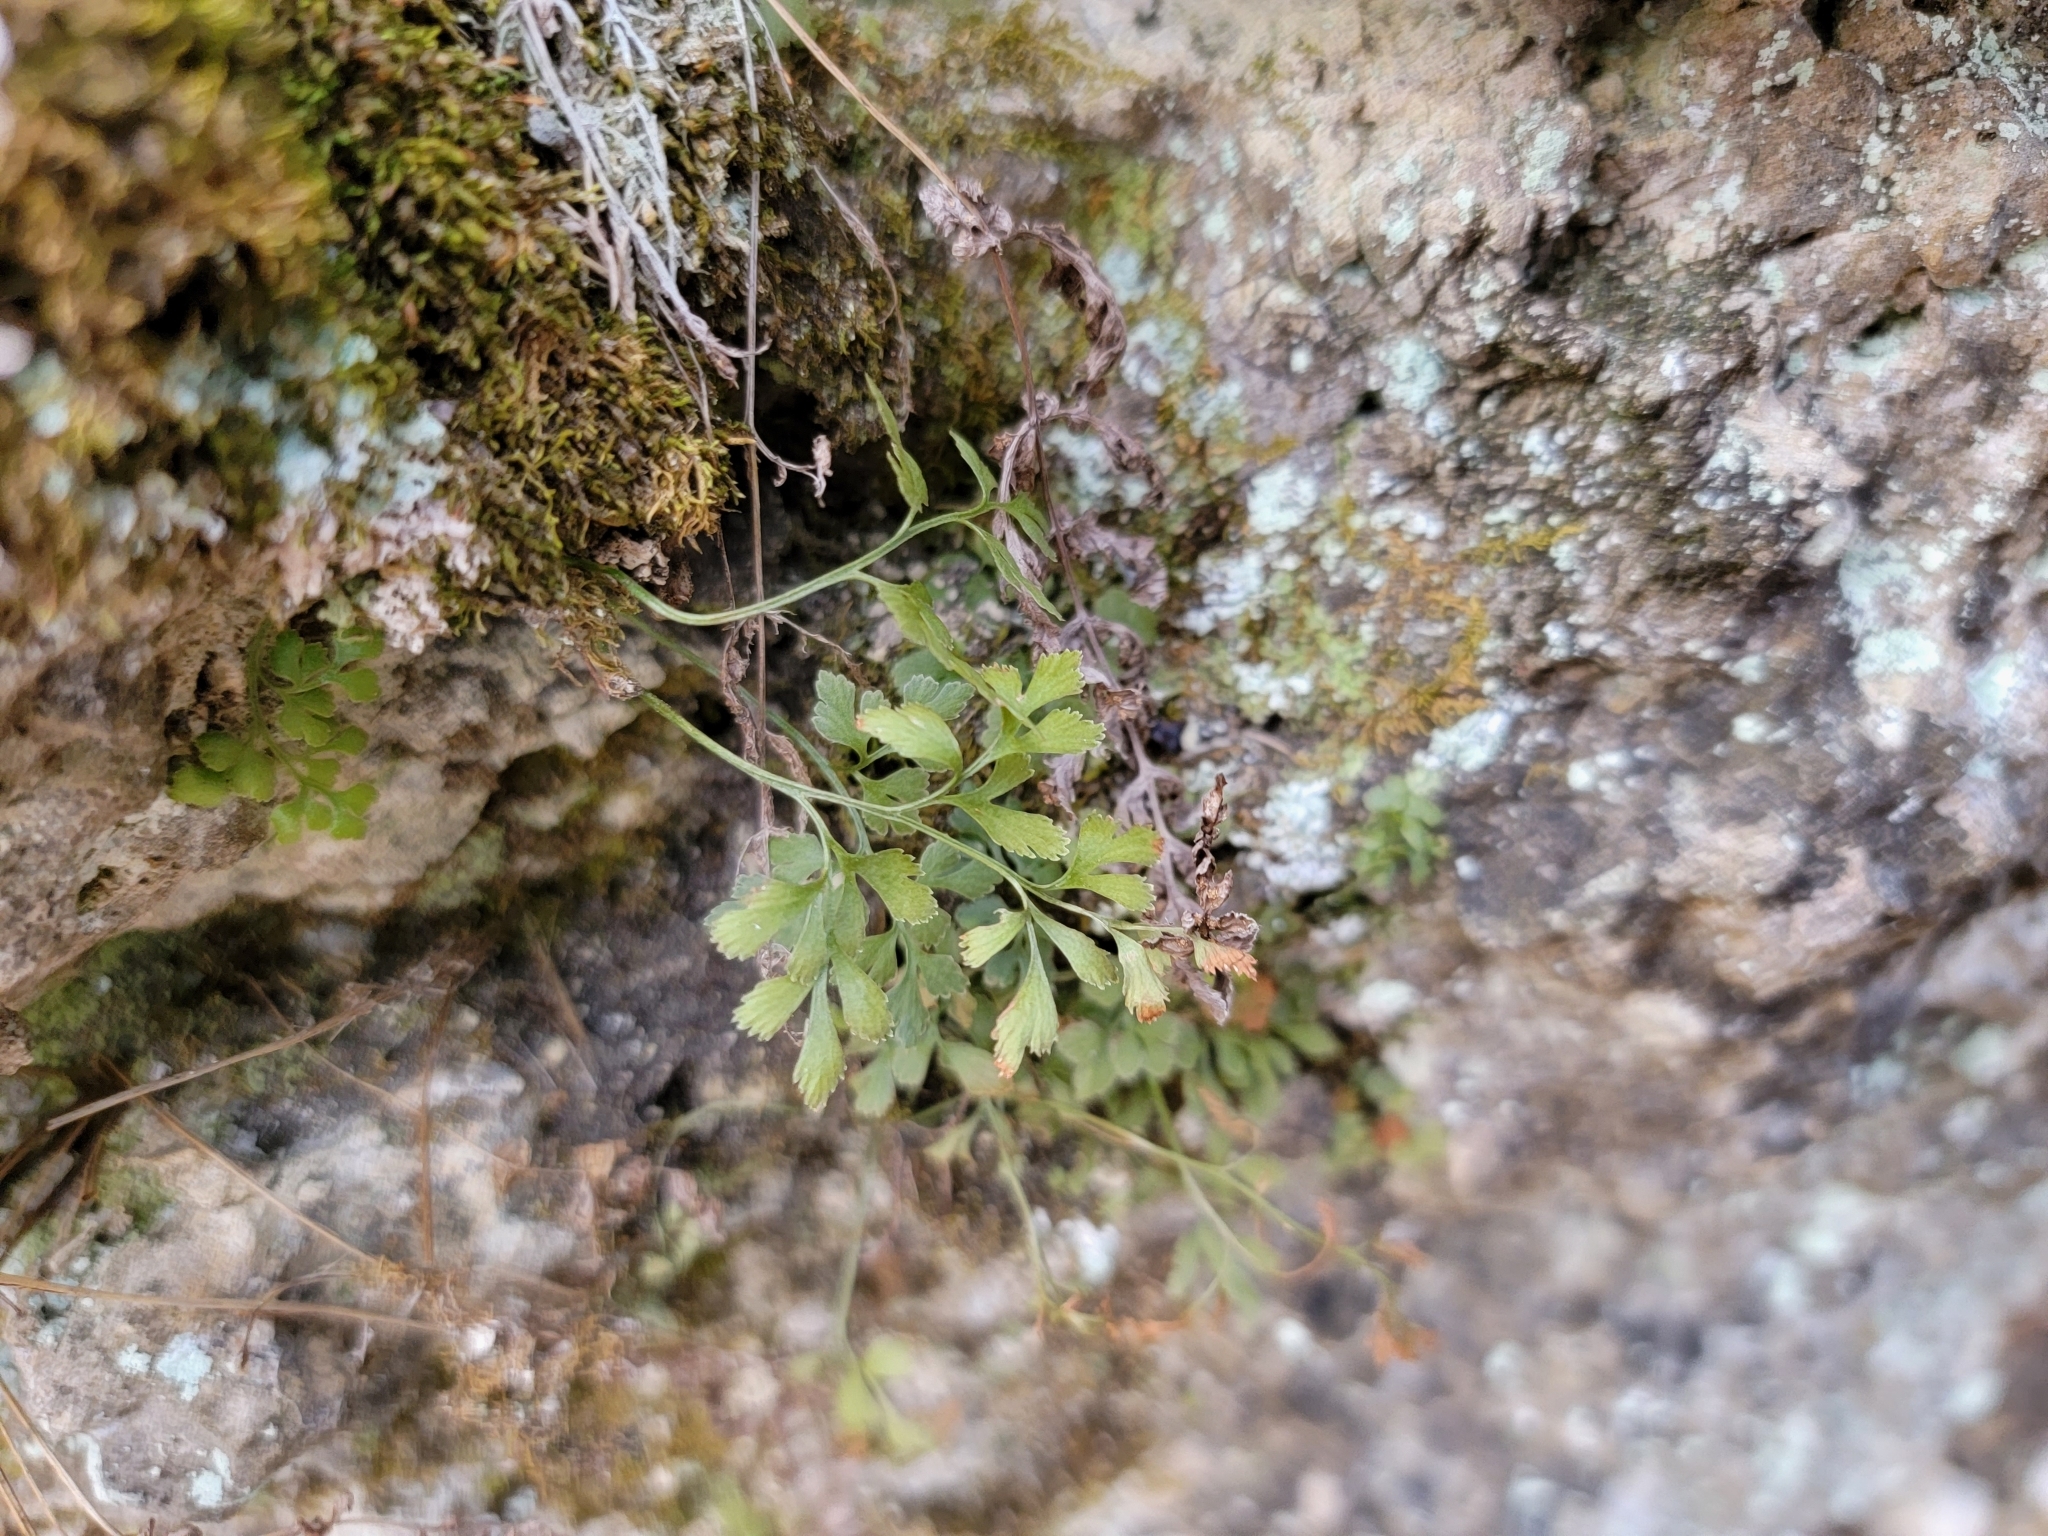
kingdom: Plantae
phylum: Tracheophyta
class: Polypodiopsida
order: Polypodiales
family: Aspleniaceae
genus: Asplenium
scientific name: Asplenium ruta-muraria
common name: Wall-rue
